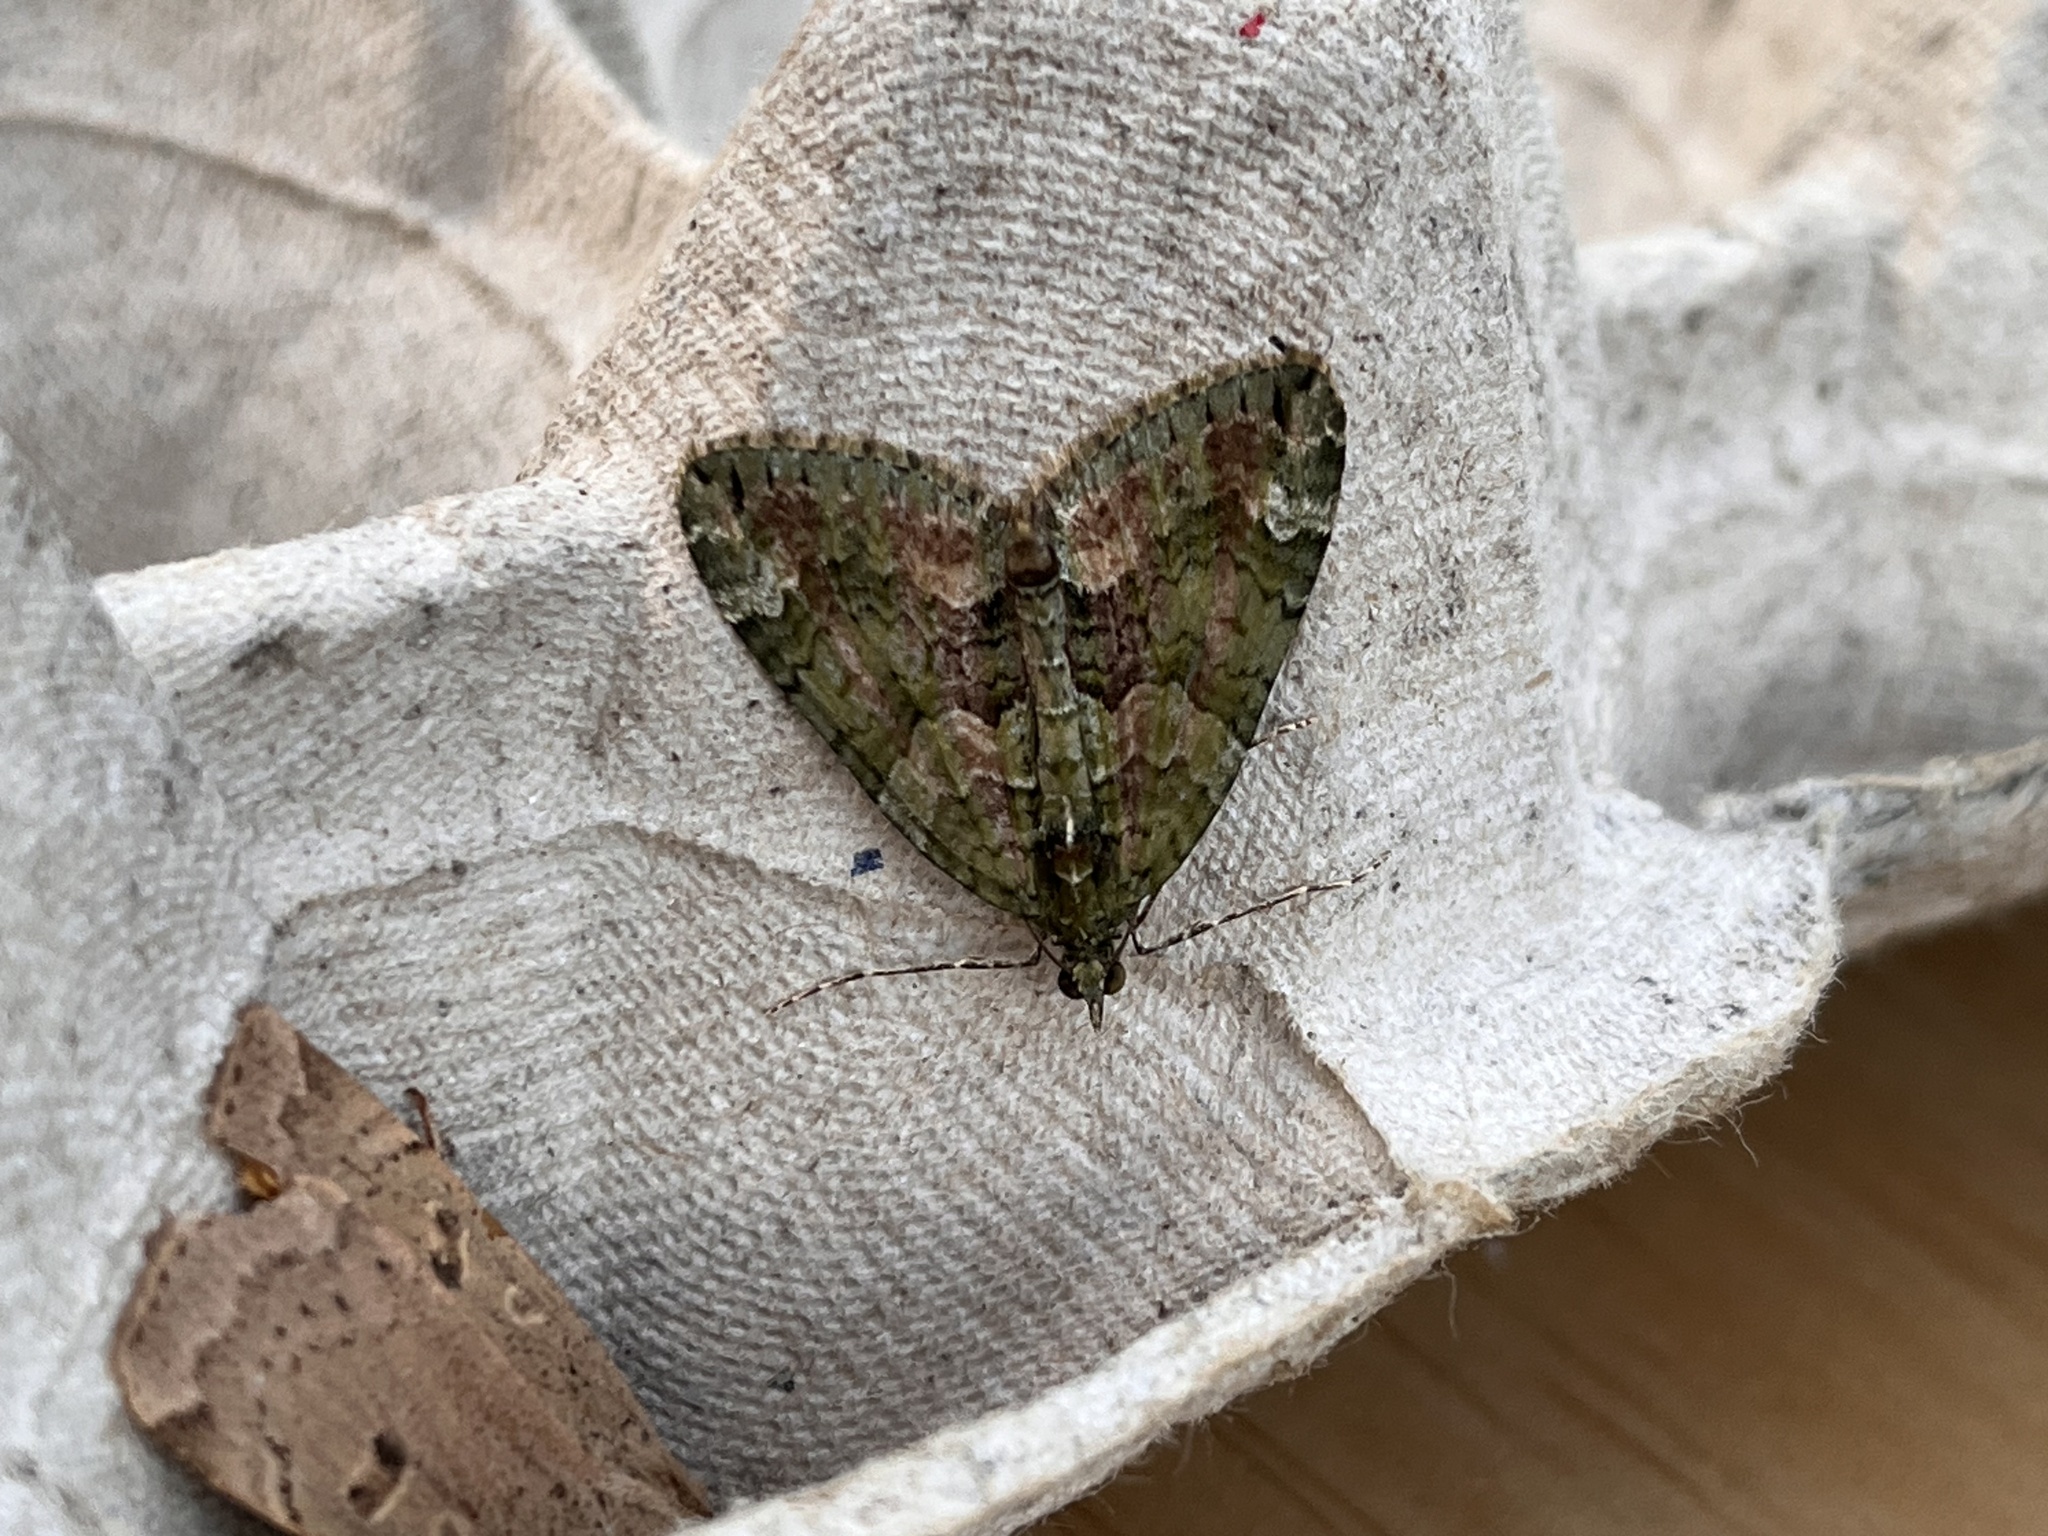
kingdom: Animalia
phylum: Arthropoda
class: Insecta
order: Lepidoptera
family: Geometridae
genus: Chloroclysta
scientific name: Chloroclysta siterata
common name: Red-green carpet
